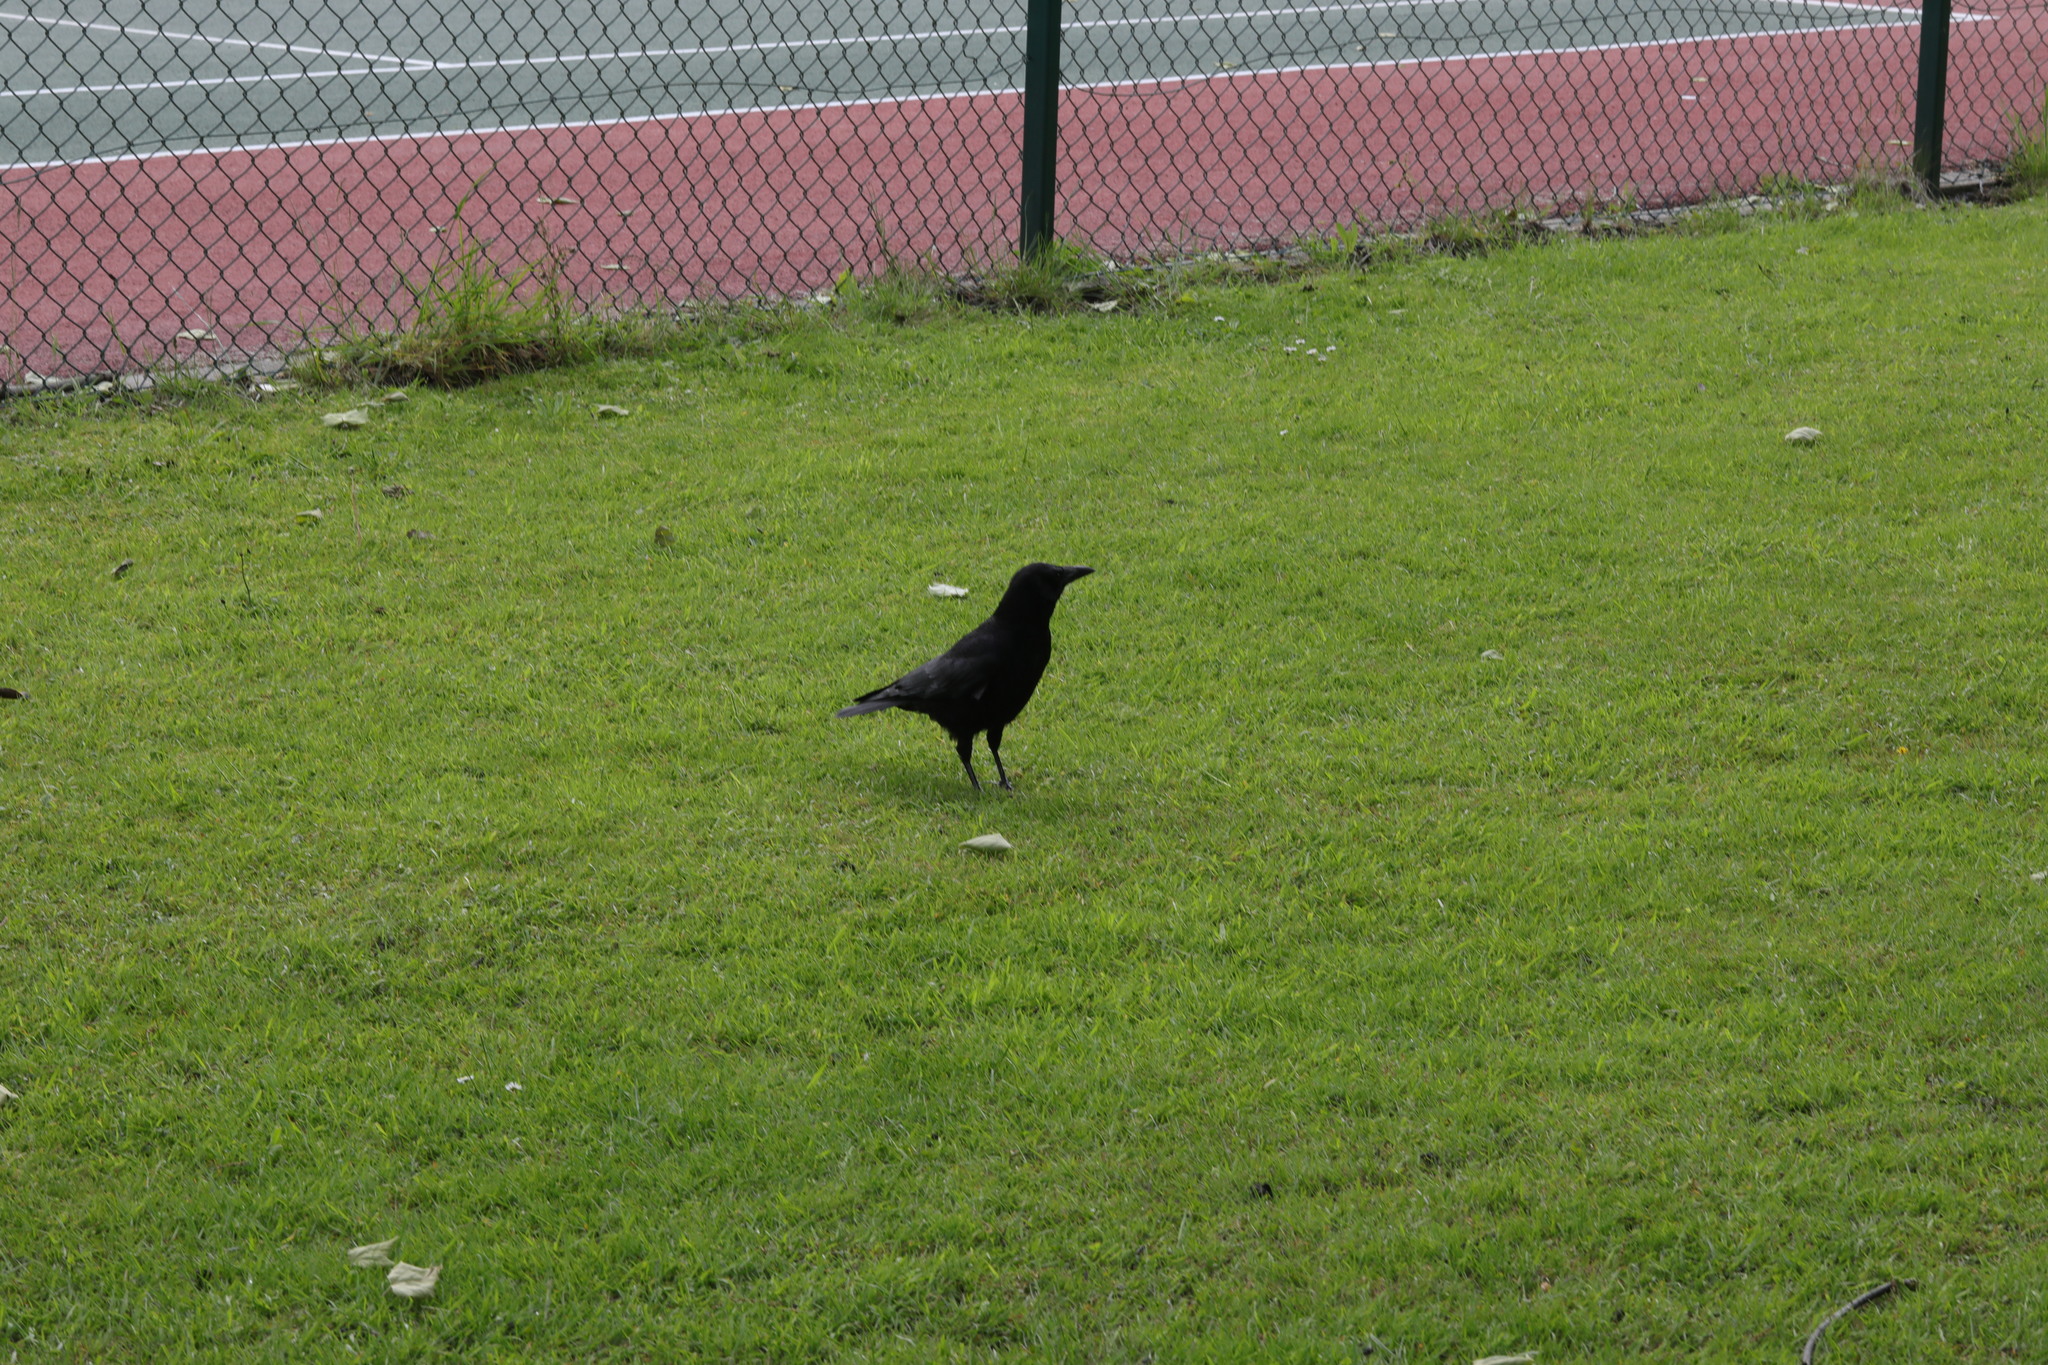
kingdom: Animalia
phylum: Chordata
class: Aves
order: Passeriformes
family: Corvidae
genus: Corvus
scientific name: Corvus corone
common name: Carrion crow
